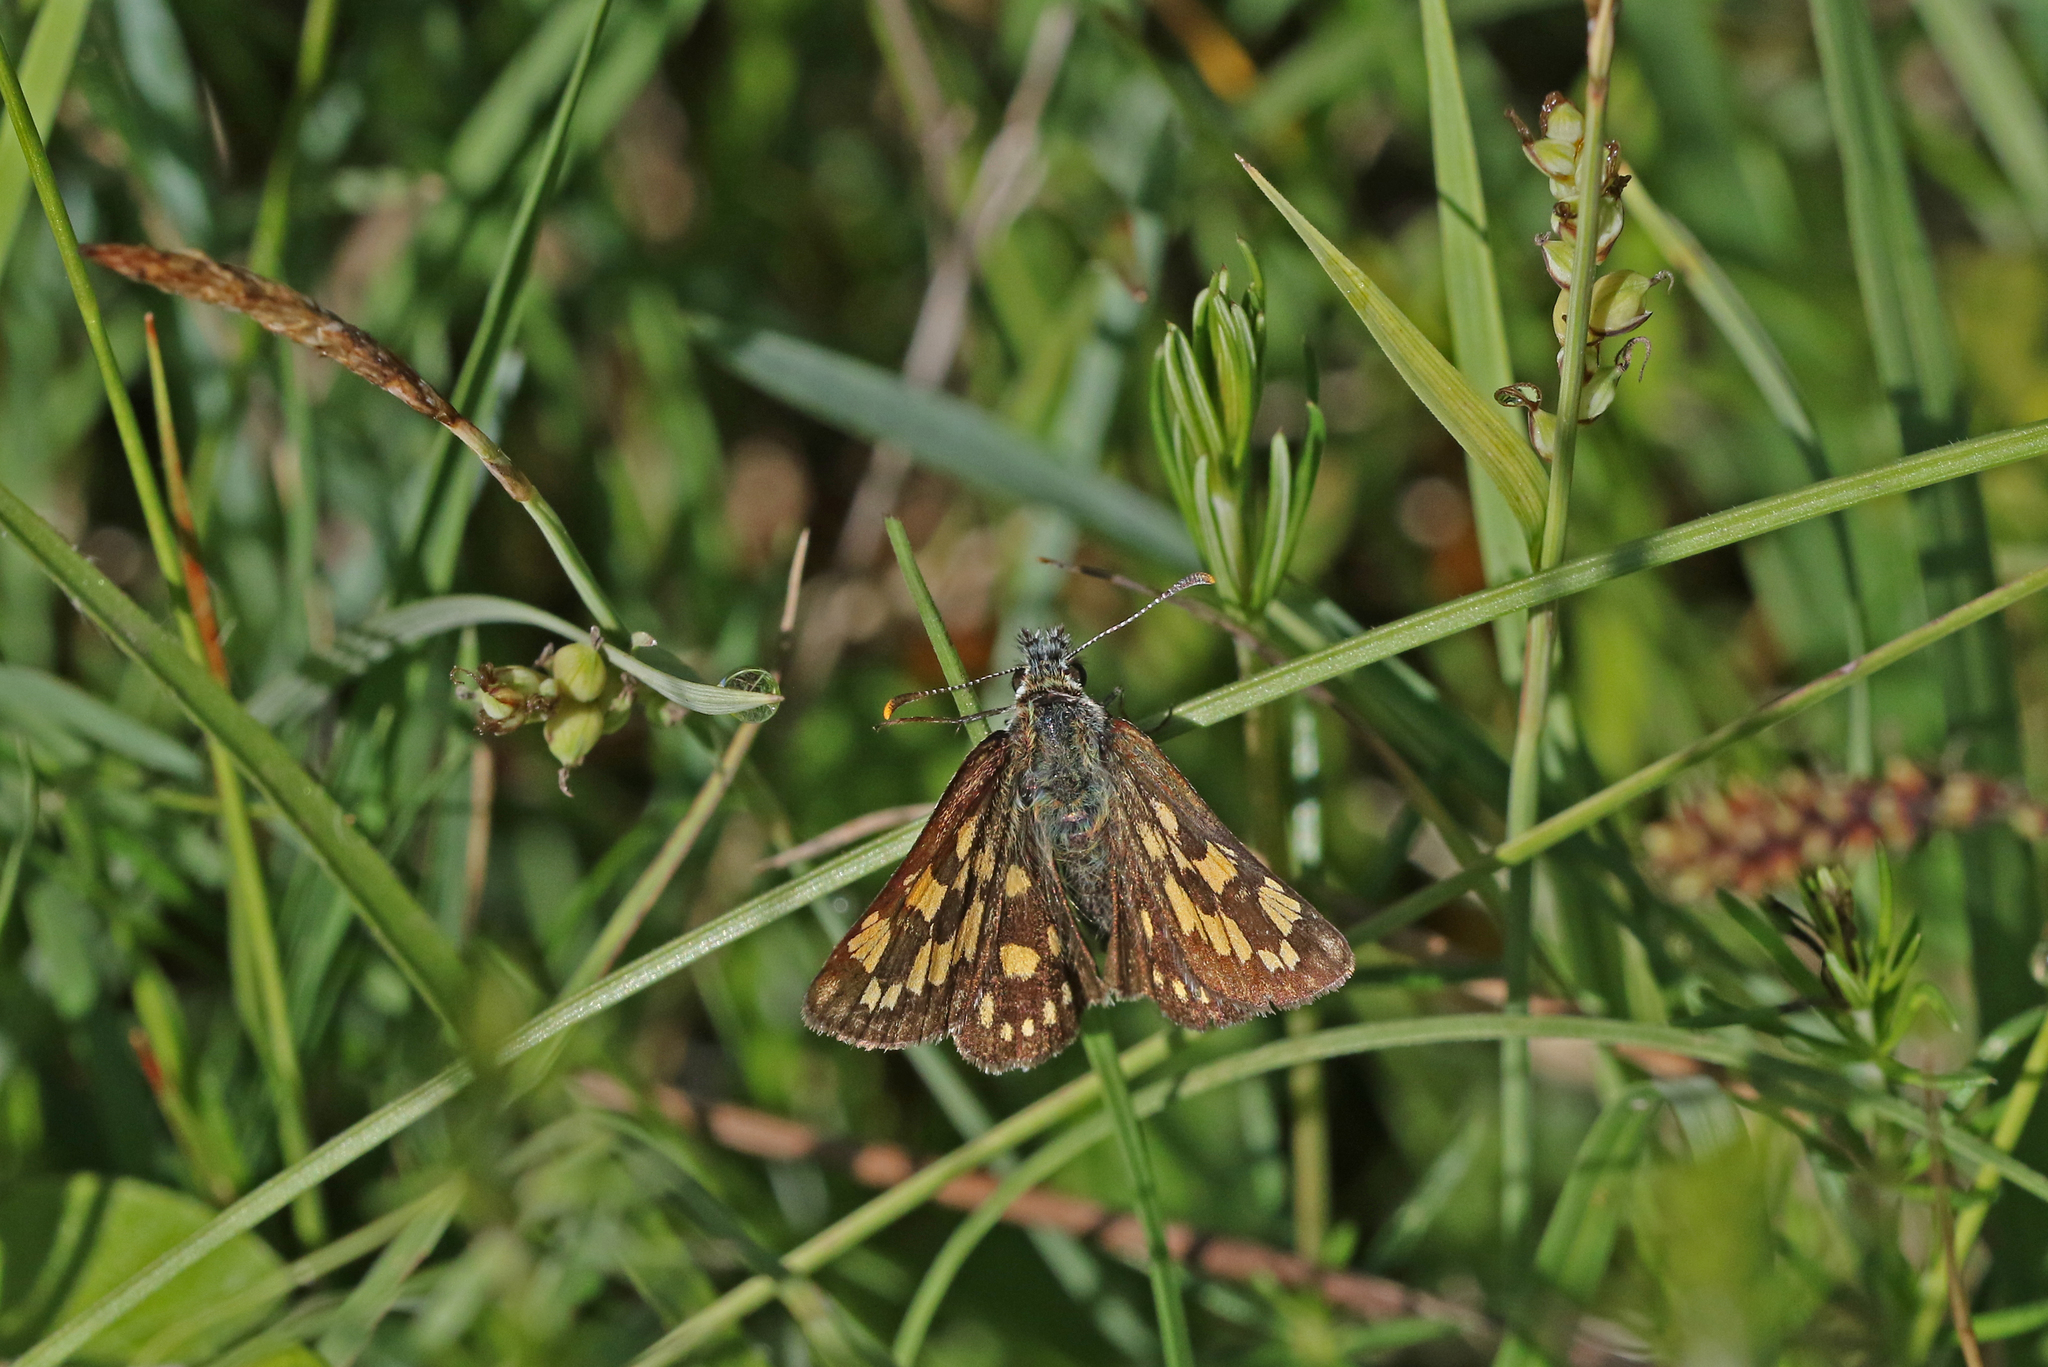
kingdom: Animalia
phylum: Arthropoda
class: Insecta
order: Lepidoptera
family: Hesperiidae
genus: Carterocephalus
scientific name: Carterocephalus palaemon
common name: Chequered skipper
